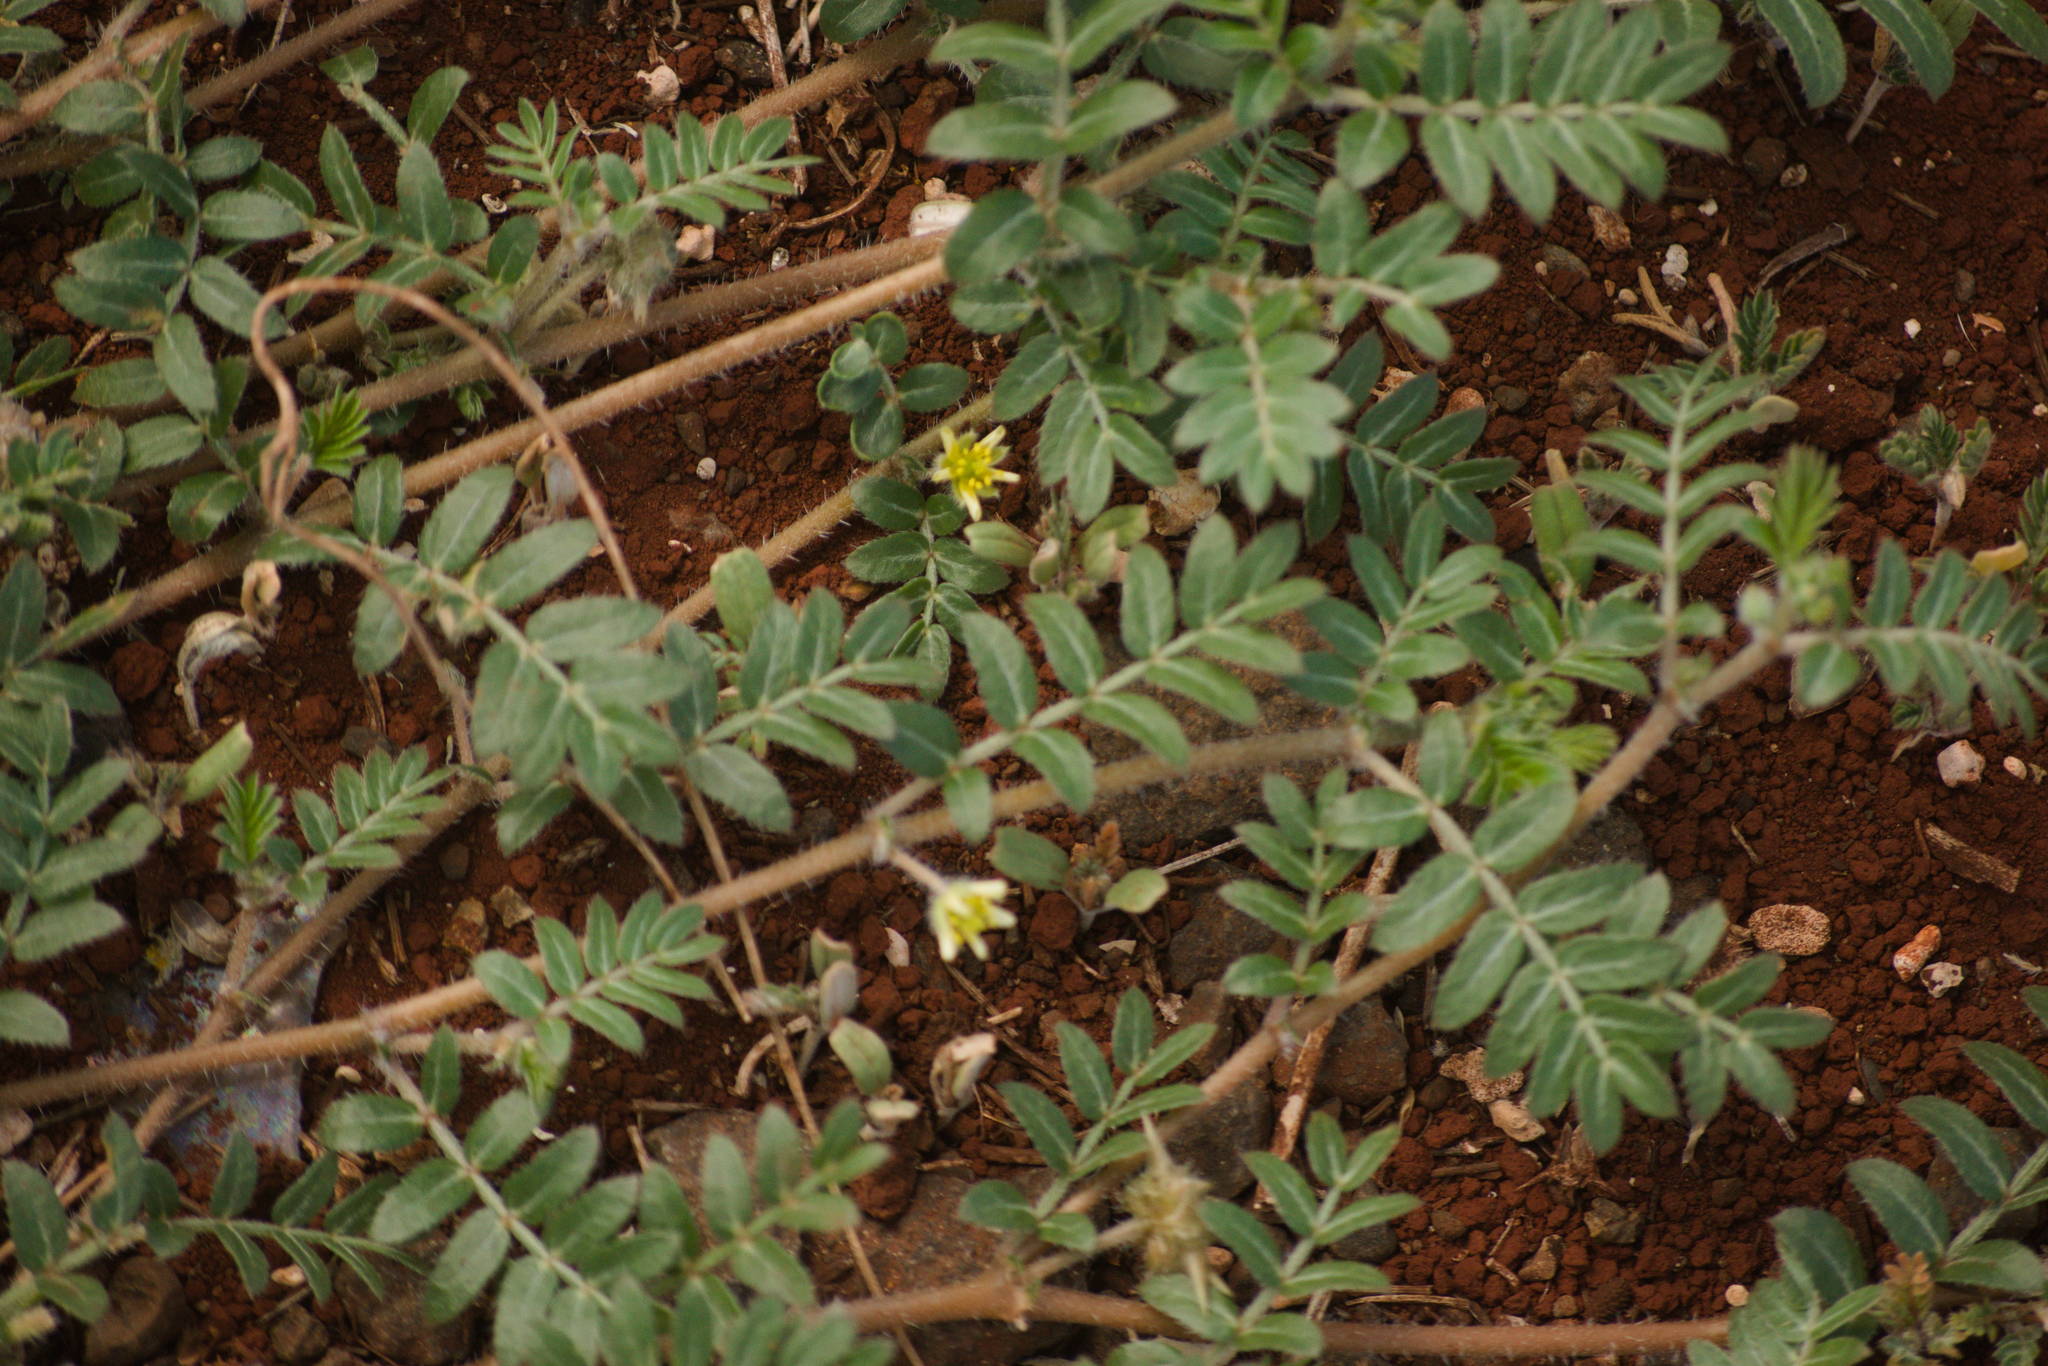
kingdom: Plantae
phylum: Tracheophyta
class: Magnoliopsida
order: Zygophyllales
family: Zygophyllaceae
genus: Tribulus
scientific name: Tribulus terrestris
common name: Puncturevine
